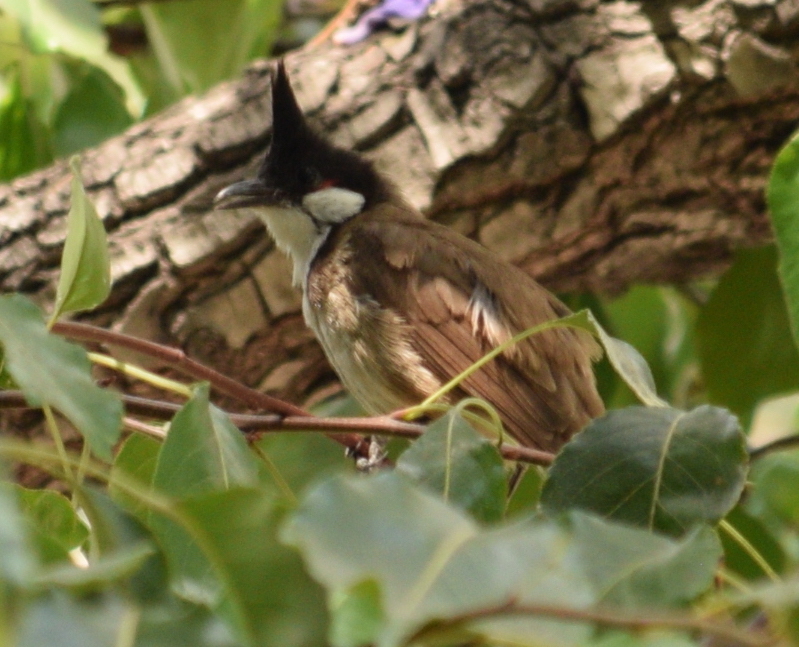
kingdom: Animalia
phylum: Chordata
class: Aves
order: Passeriformes
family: Pycnonotidae
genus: Pycnonotus
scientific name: Pycnonotus jocosus
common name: Red-whiskered bulbul
